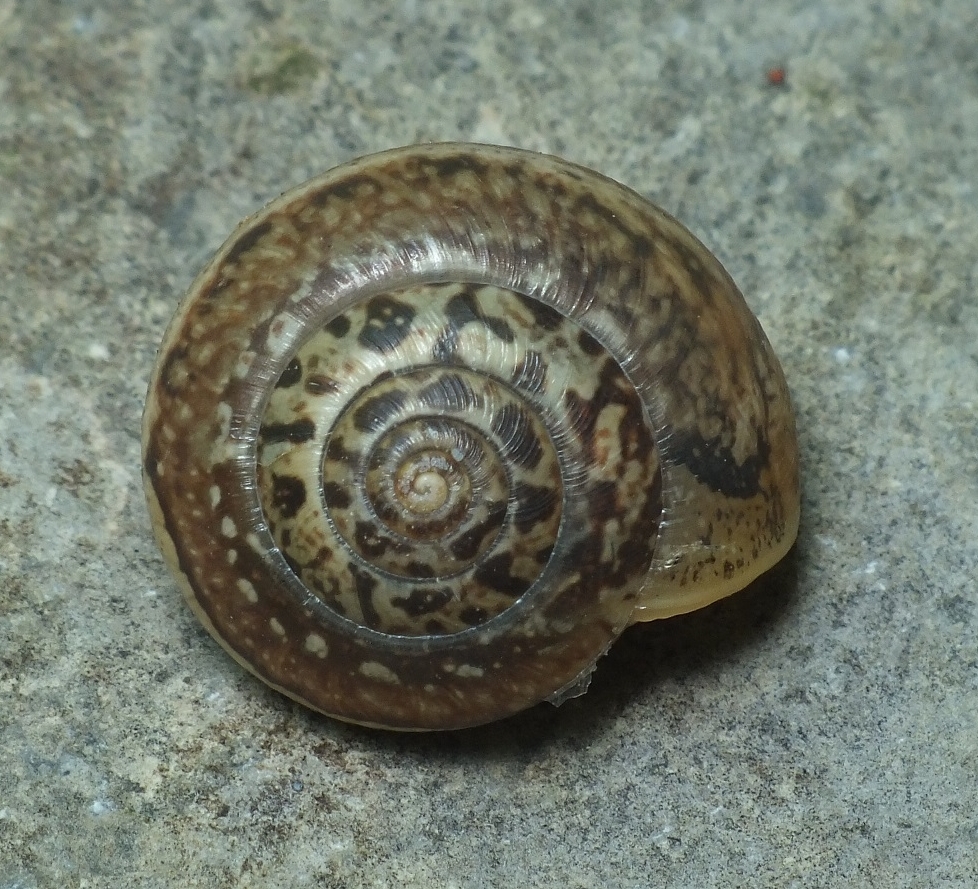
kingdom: Animalia
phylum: Mollusca
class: Gastropoda
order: Stylommatophora
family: Hygromiidae
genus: Monacha
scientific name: Monacha fruticola
